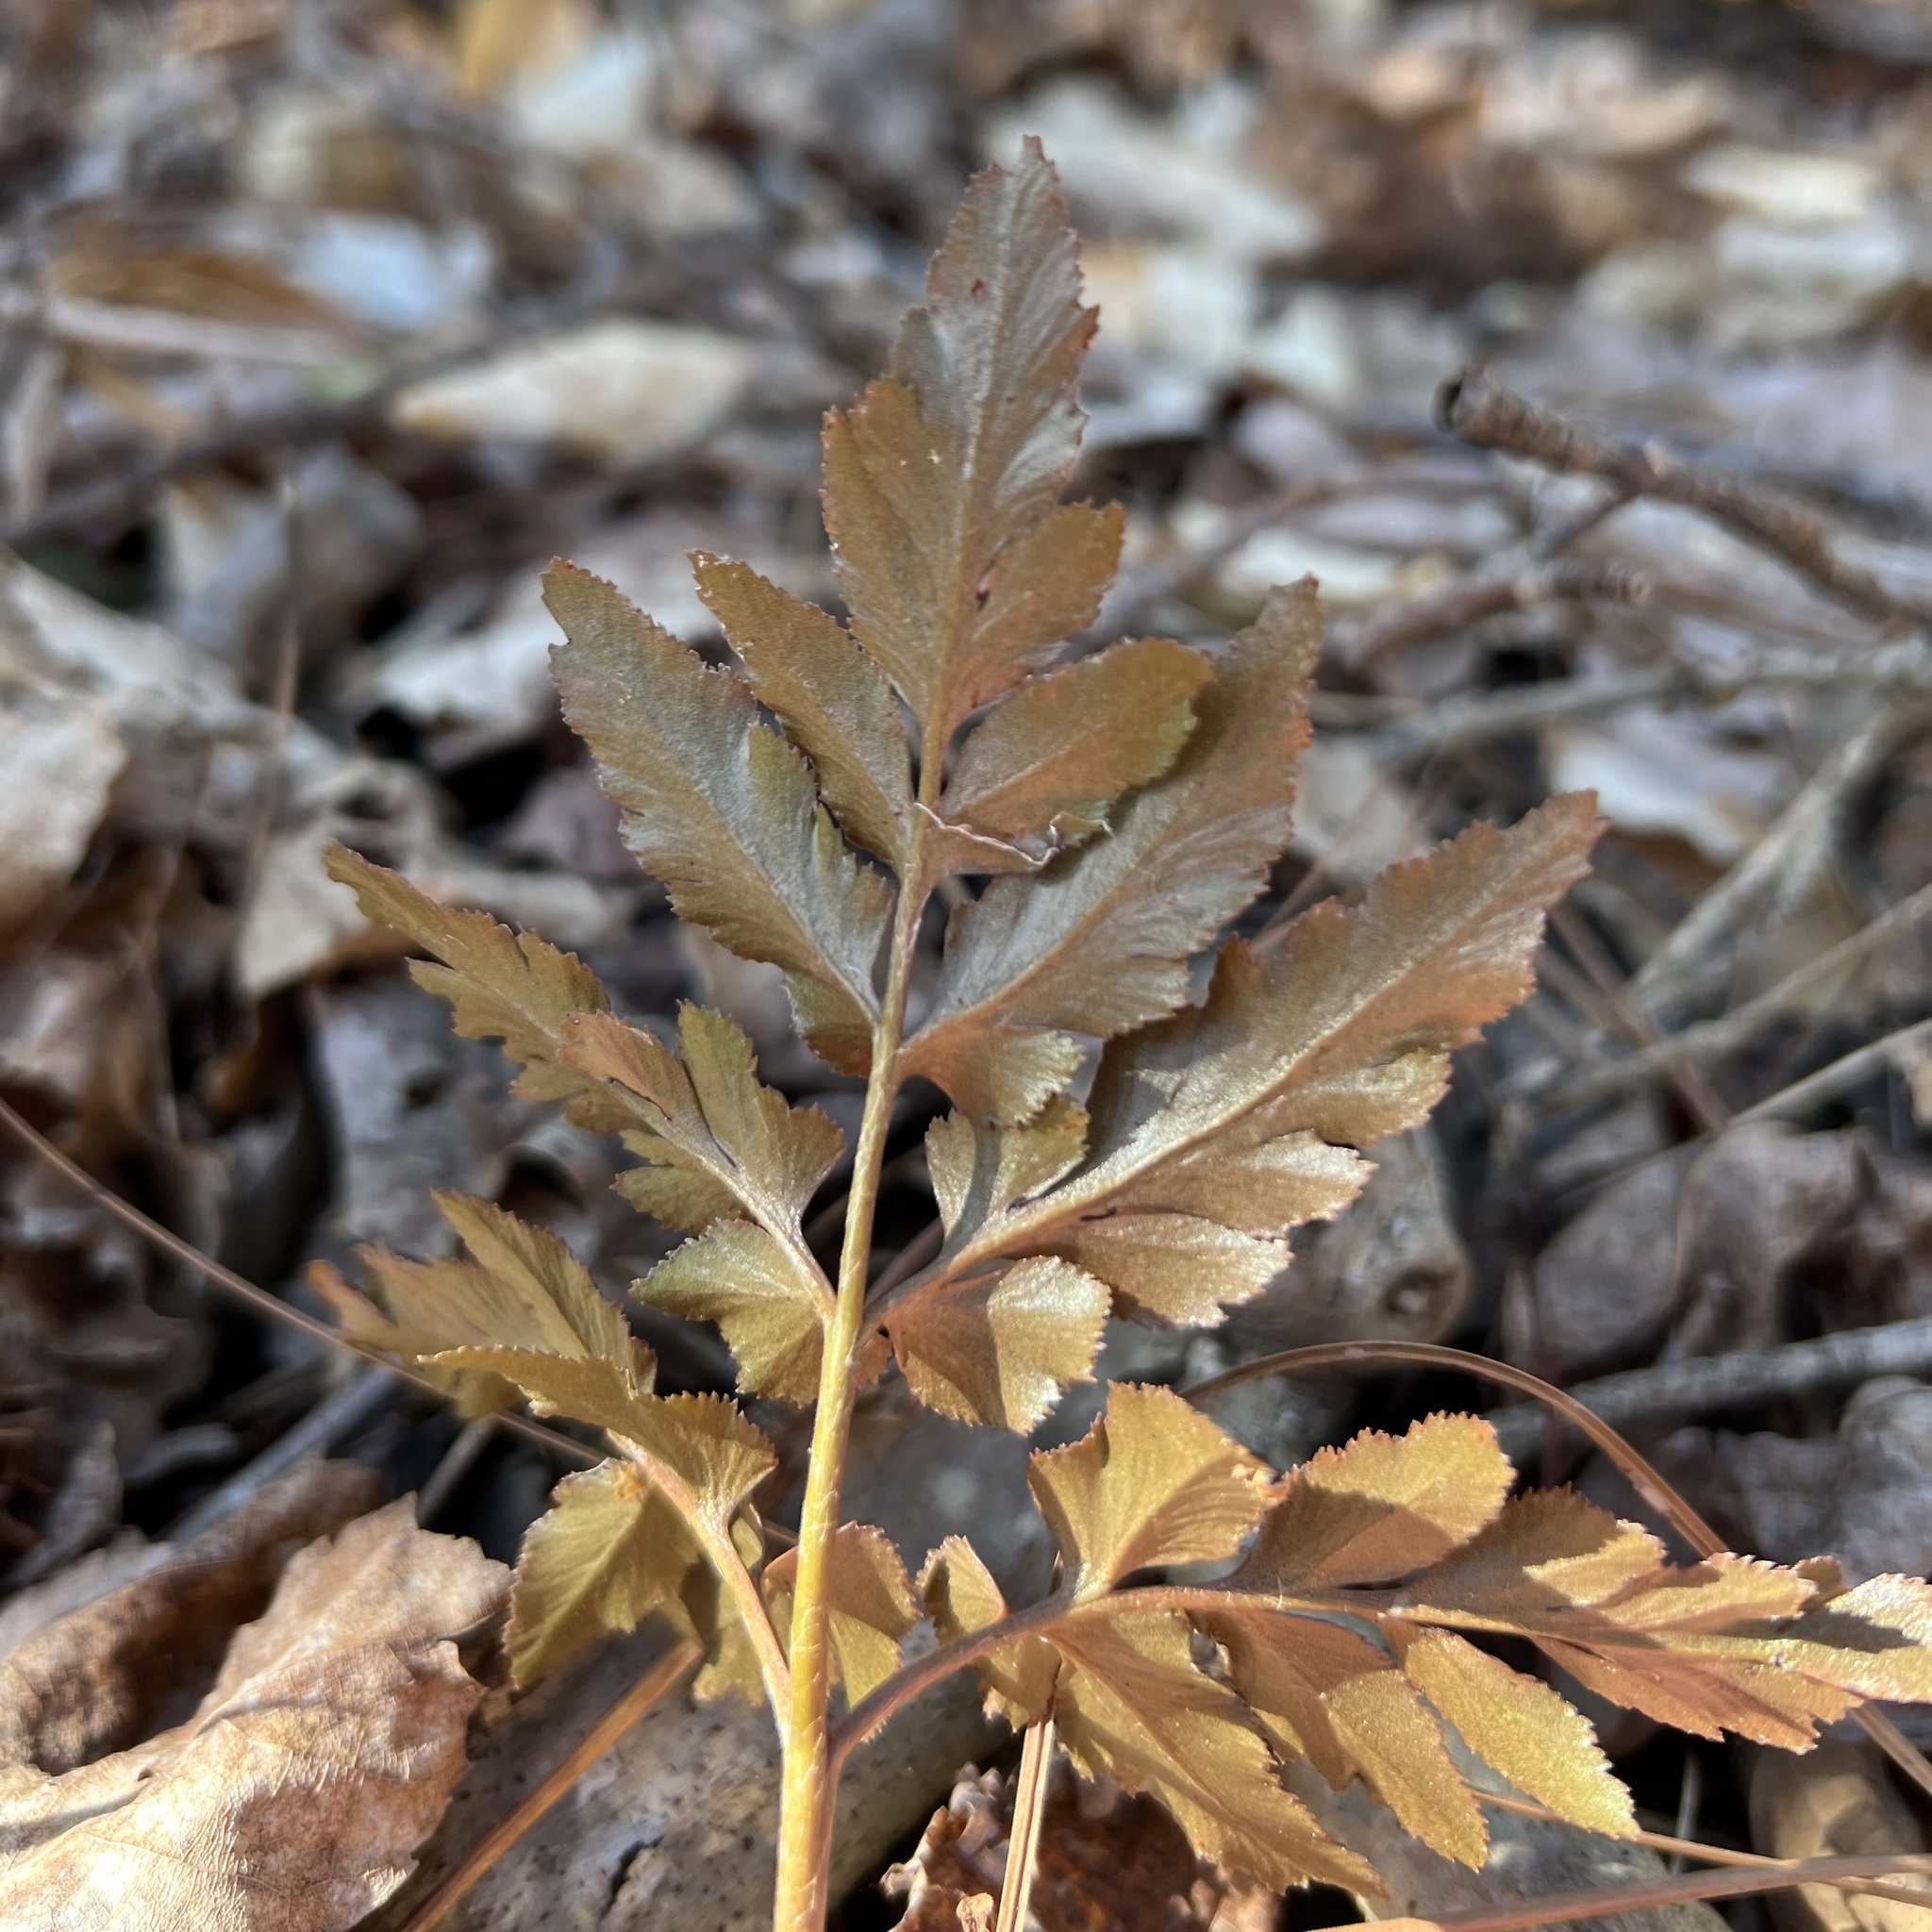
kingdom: Plantae
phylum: Tracheophyta
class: Polypodiopsida
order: Ophioglossales
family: Ophioglossaceae
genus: Sceptridium
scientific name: Sceptridium dissectum
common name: Cut-leaved grapefern
